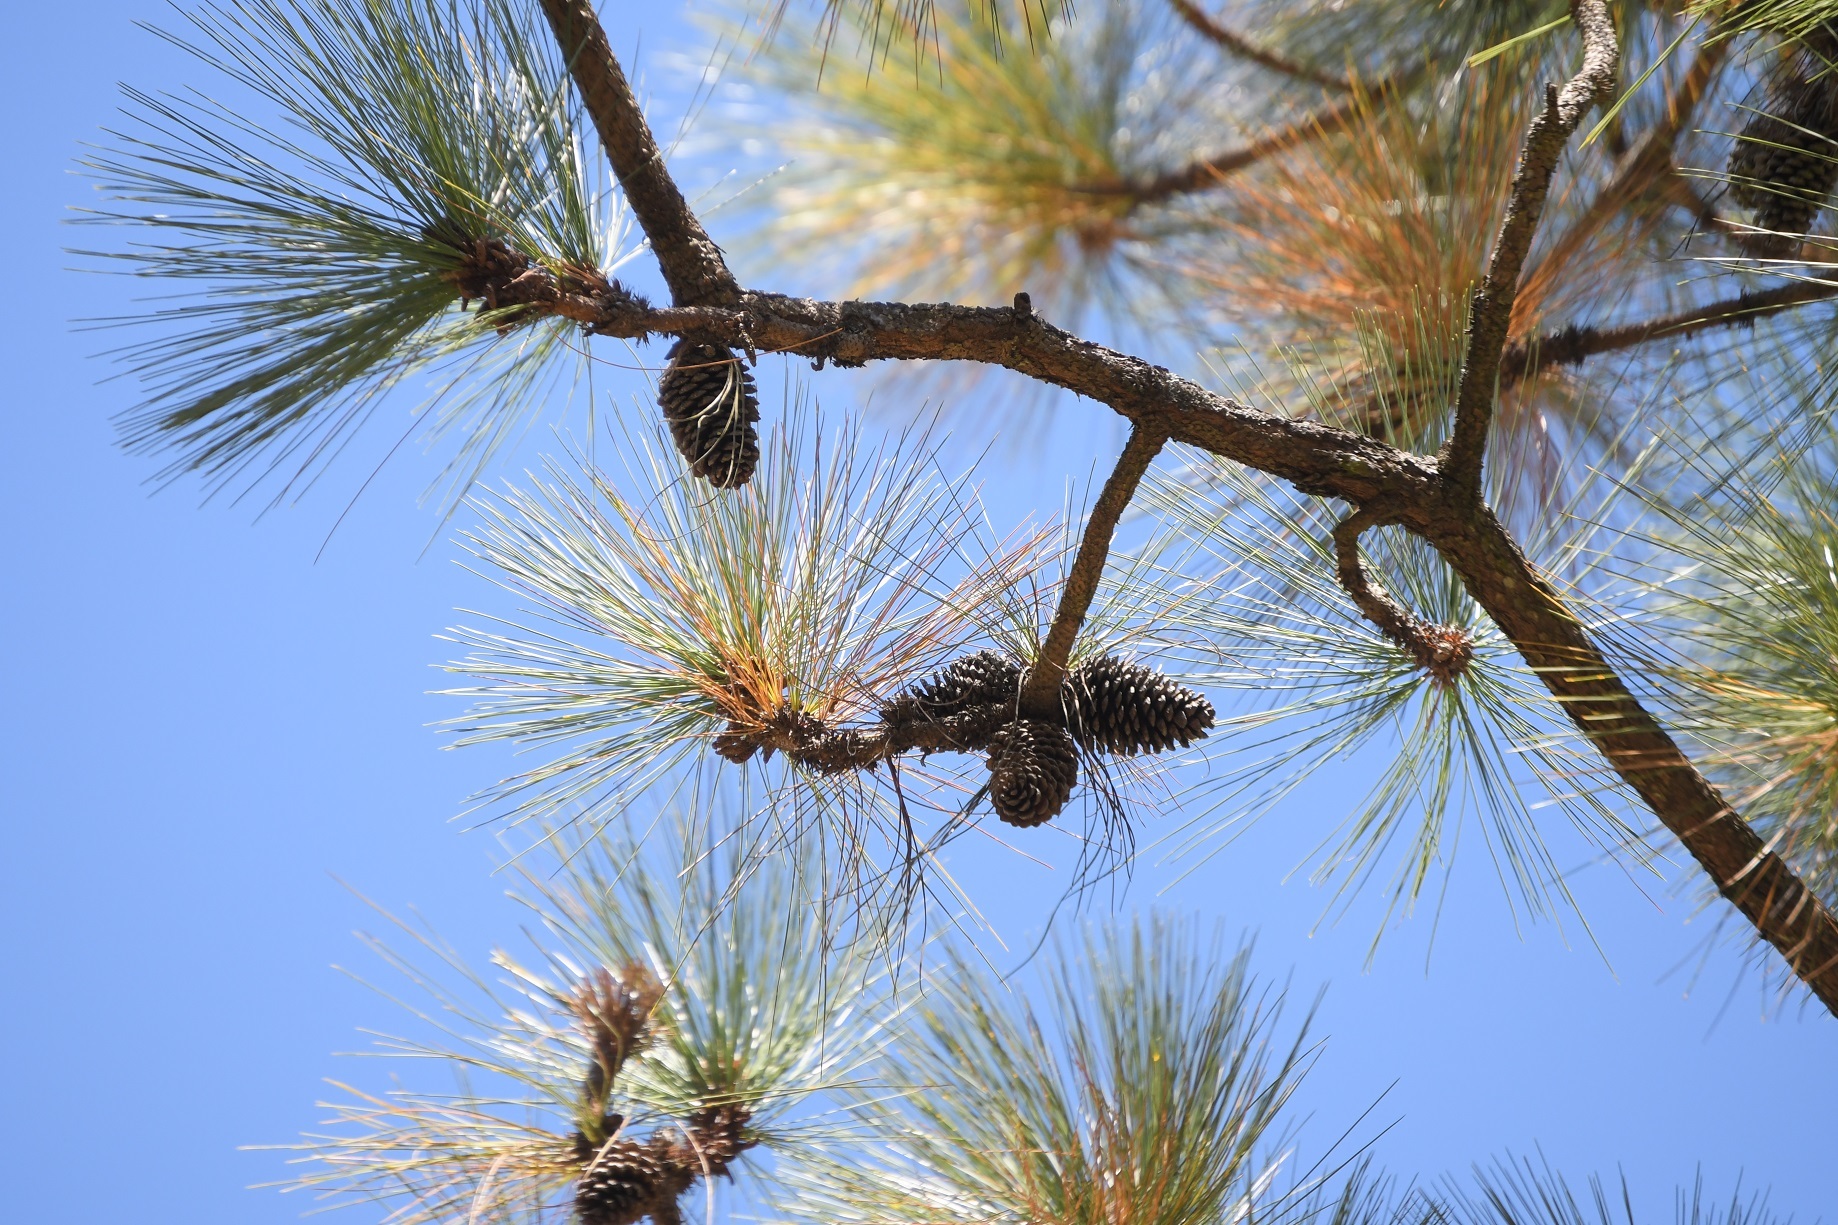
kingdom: Plantae
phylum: Tracheophyta
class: Pinopsida
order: Pinales
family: Pinaceae
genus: Pinus
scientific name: Pinus montezumae
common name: Montezuma pine
